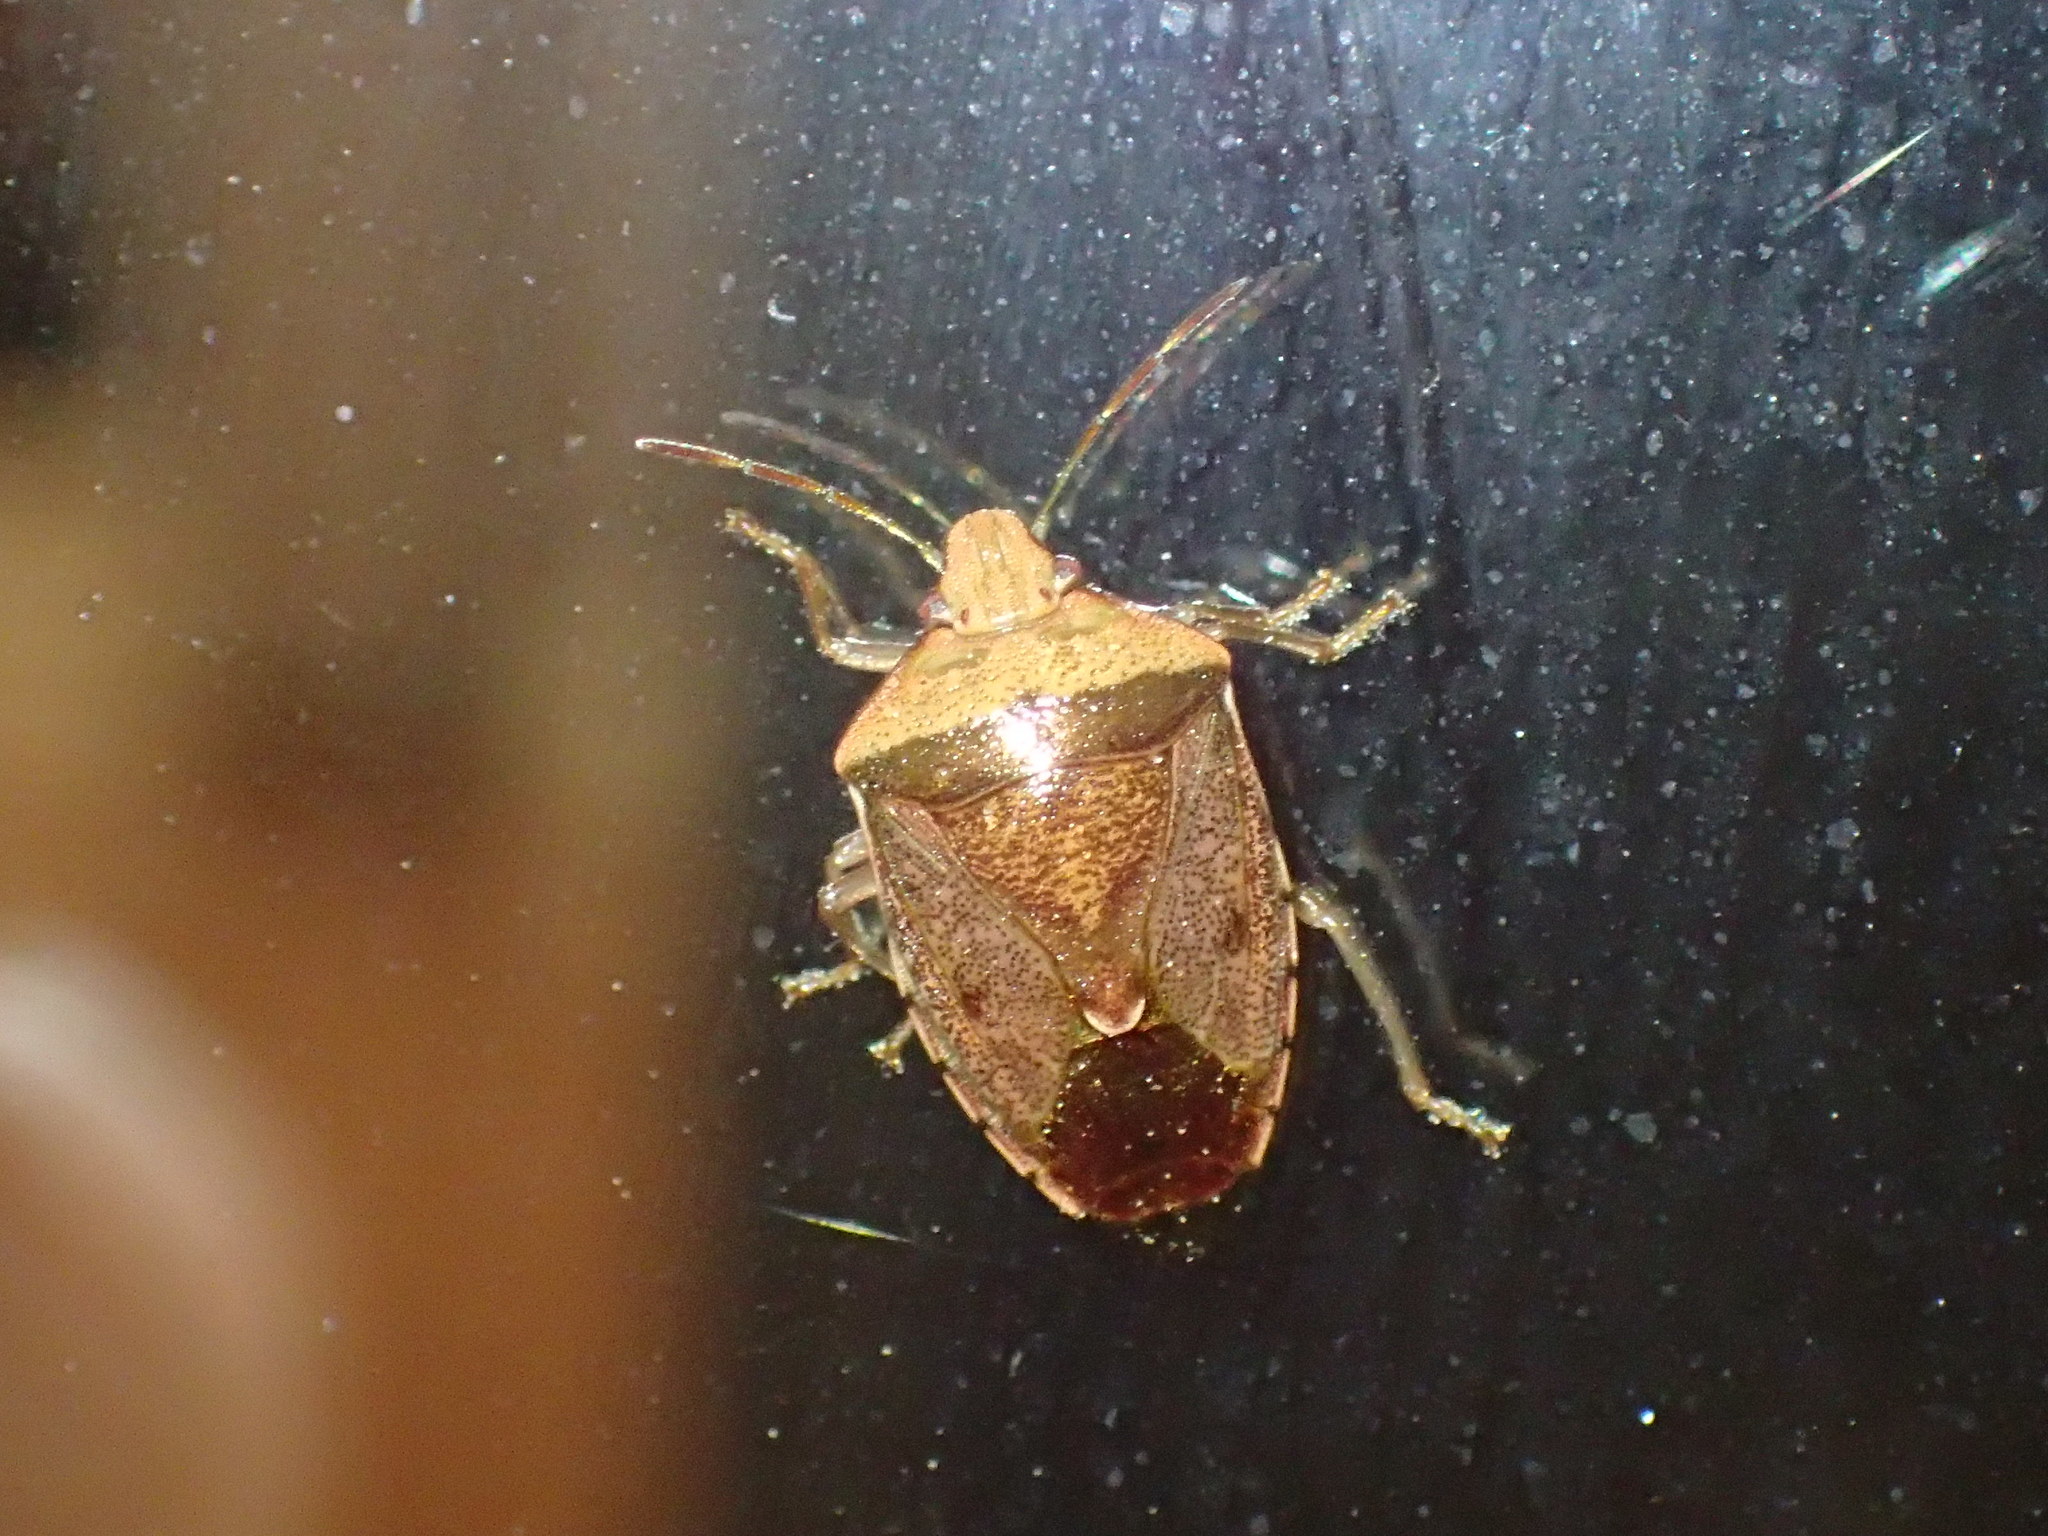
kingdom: Animalia
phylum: Arthropoda
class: Insecta
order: Hemiptera
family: Pentatomidae
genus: Banasa
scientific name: Banasa calva
